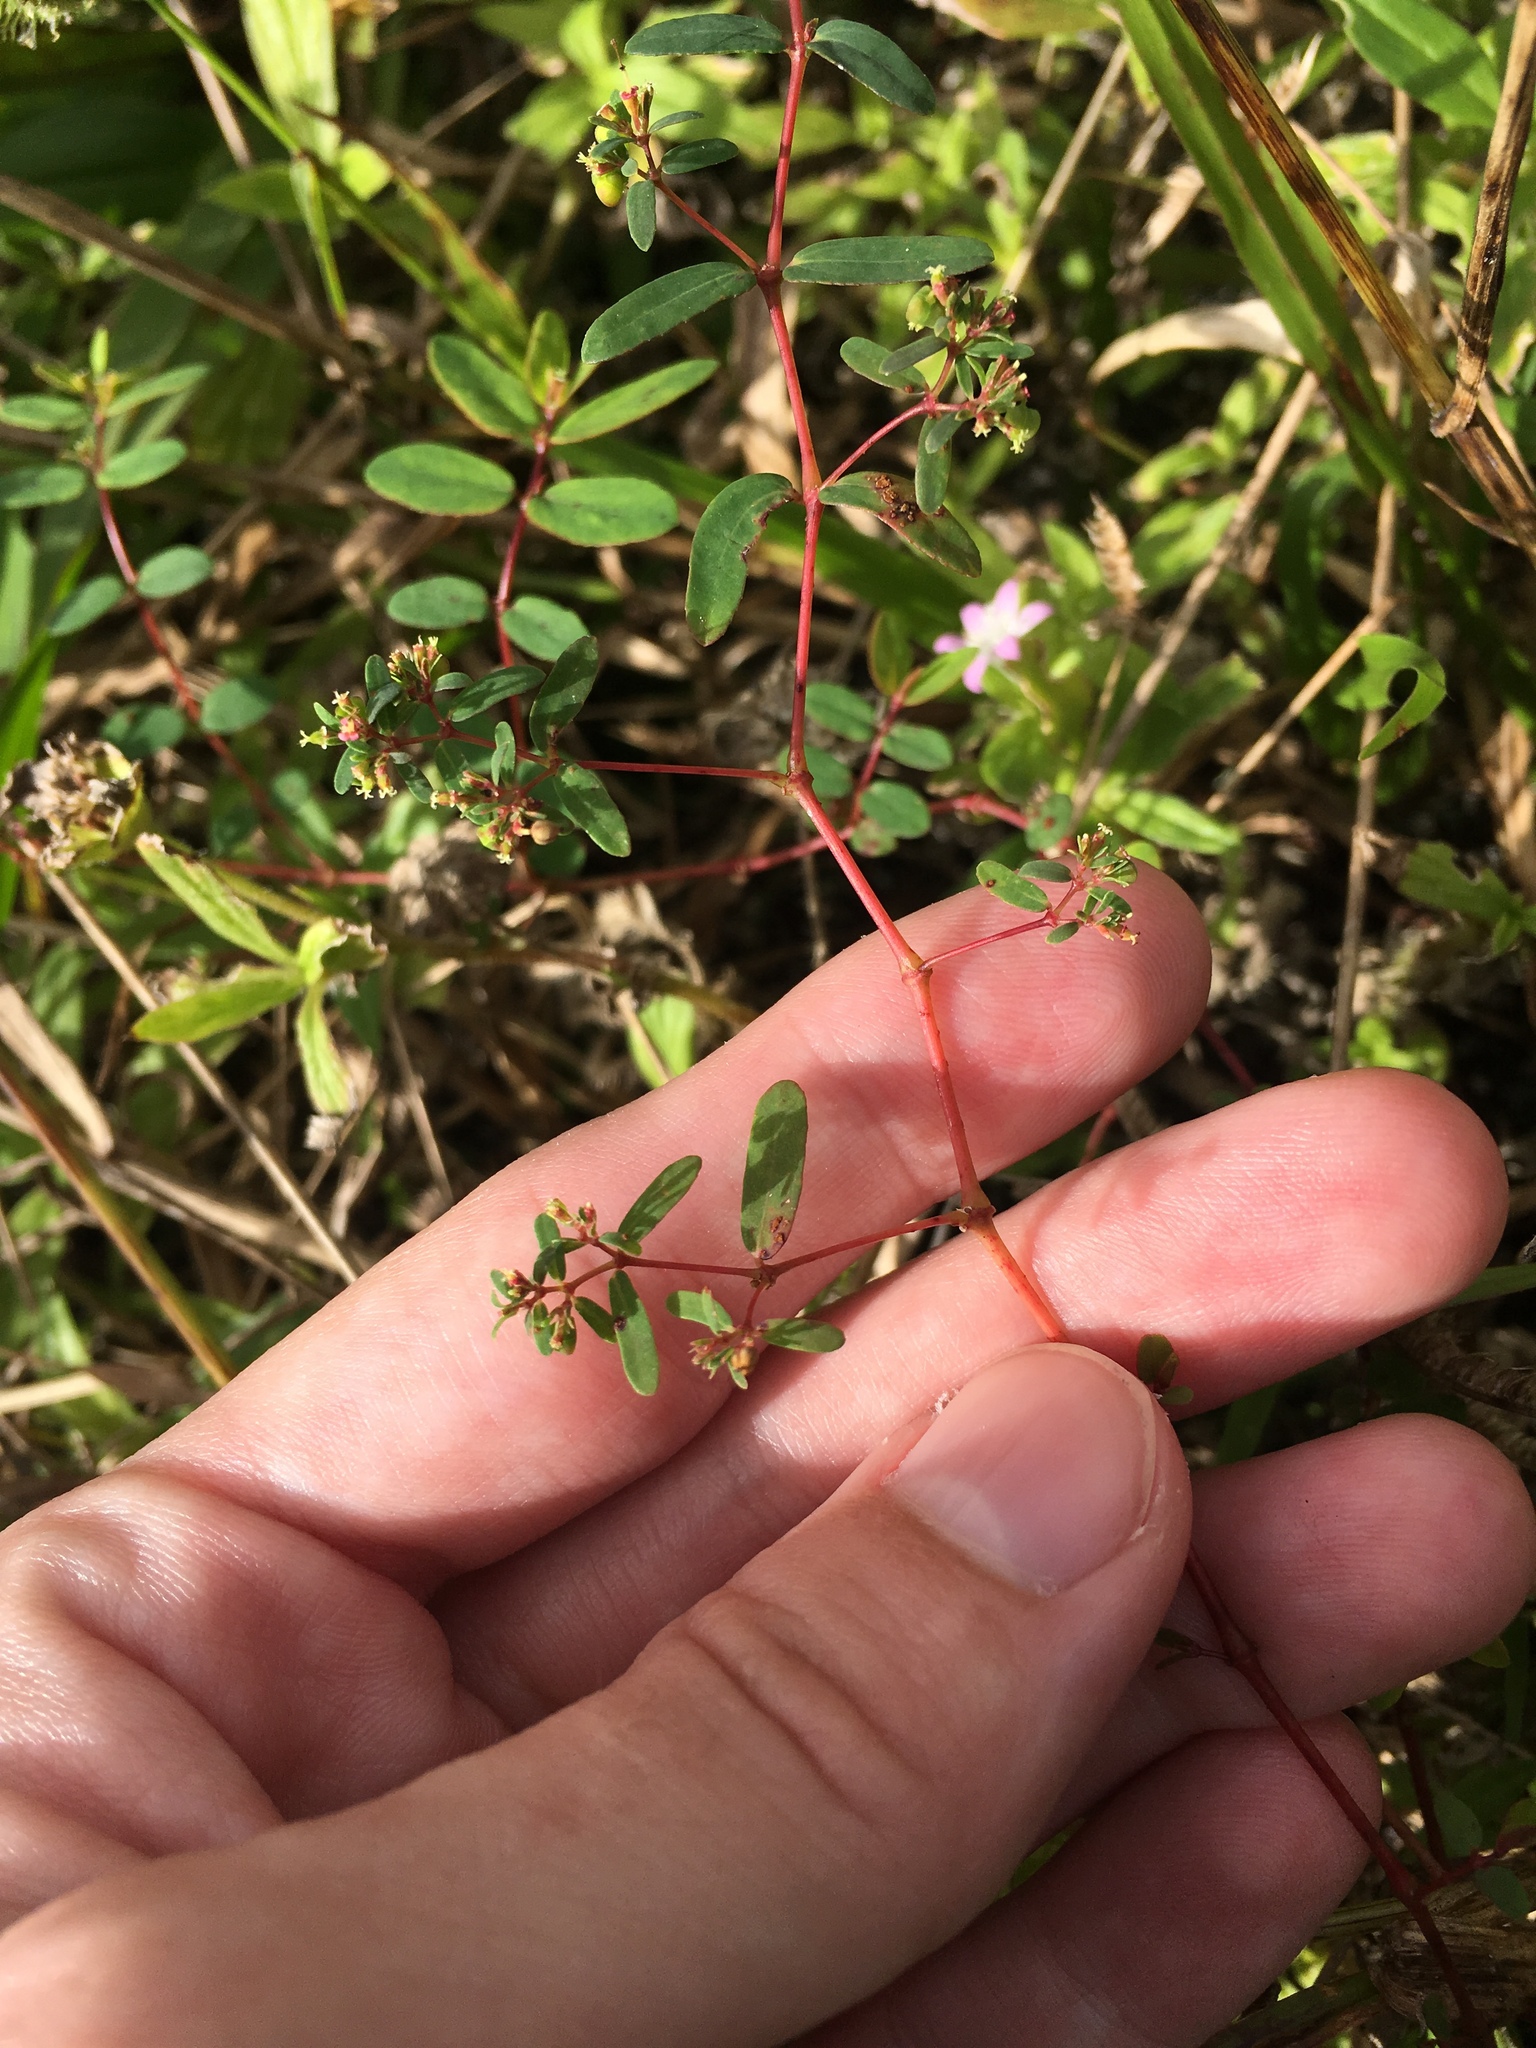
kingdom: Plantae
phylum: Tracheophyta
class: Magnoliopsida
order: Malpighiales
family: Euphorbiaceae
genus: Euphorbia
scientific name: Euphorbia hyssopifolia
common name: Hyssopleaf sandmat
